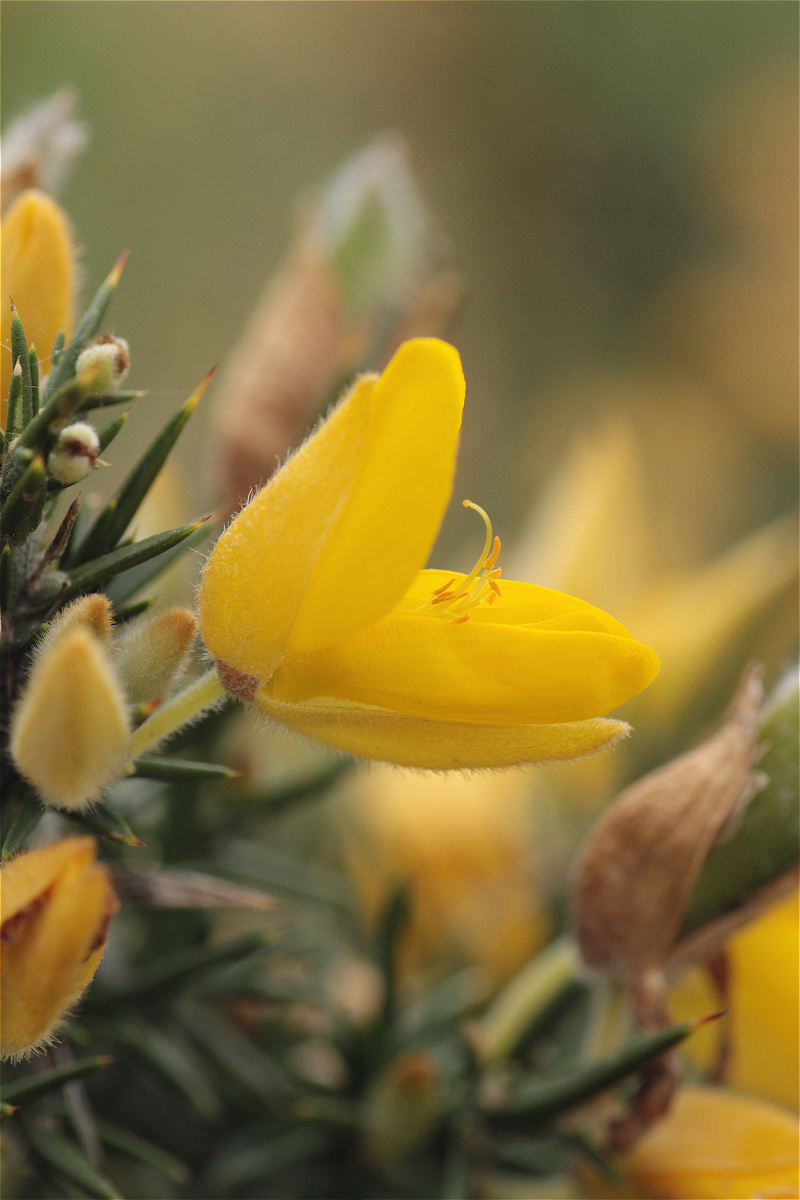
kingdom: Plantae
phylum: Tracheophyta
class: Magnoliopsida
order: Fabales
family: Fabaceae
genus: Ulex
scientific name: Ulex europaeus
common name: Common gorse
